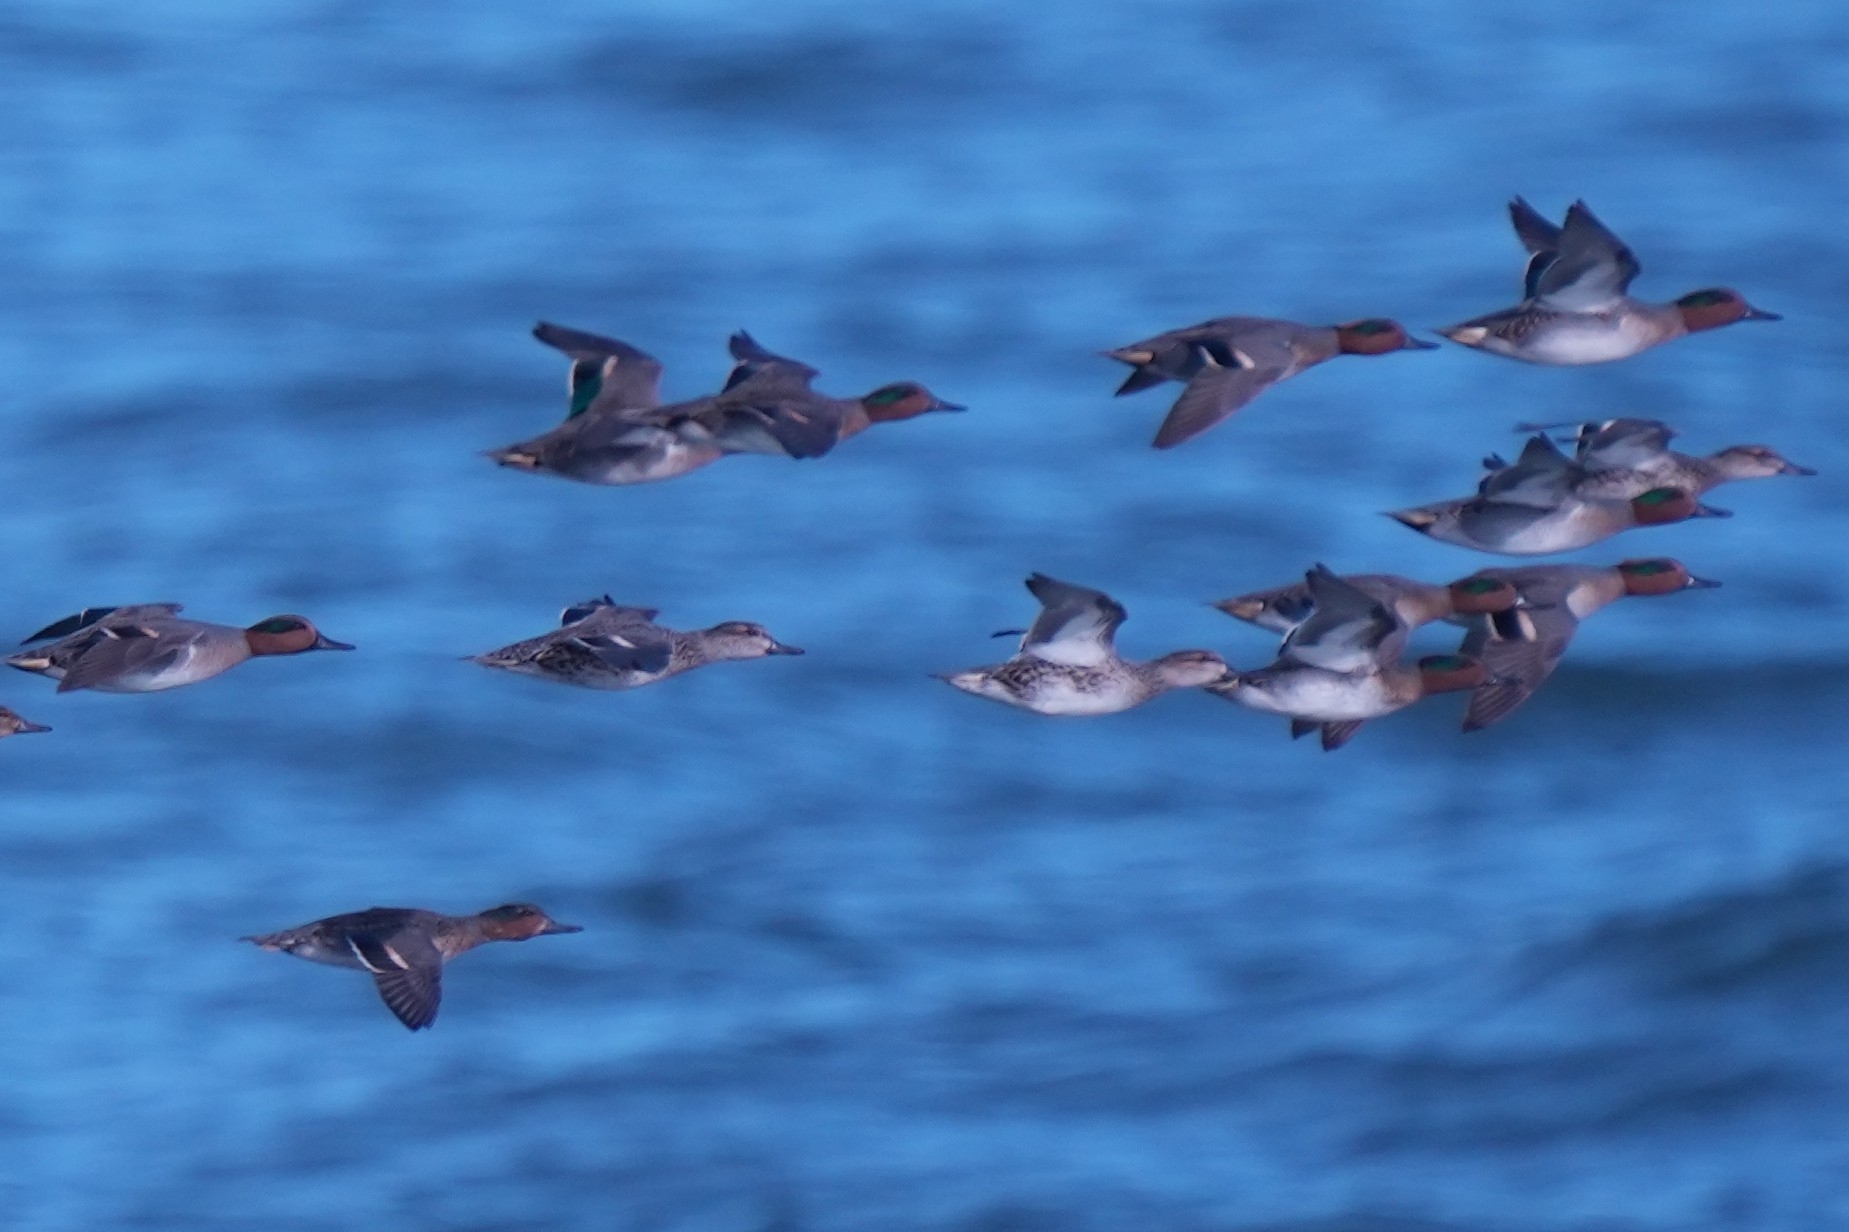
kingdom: Animalia
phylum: Chordata
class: Aves
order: Anseriformes
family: Anatidae
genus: Anas
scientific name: Anas crecca
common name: Eurasian teal
